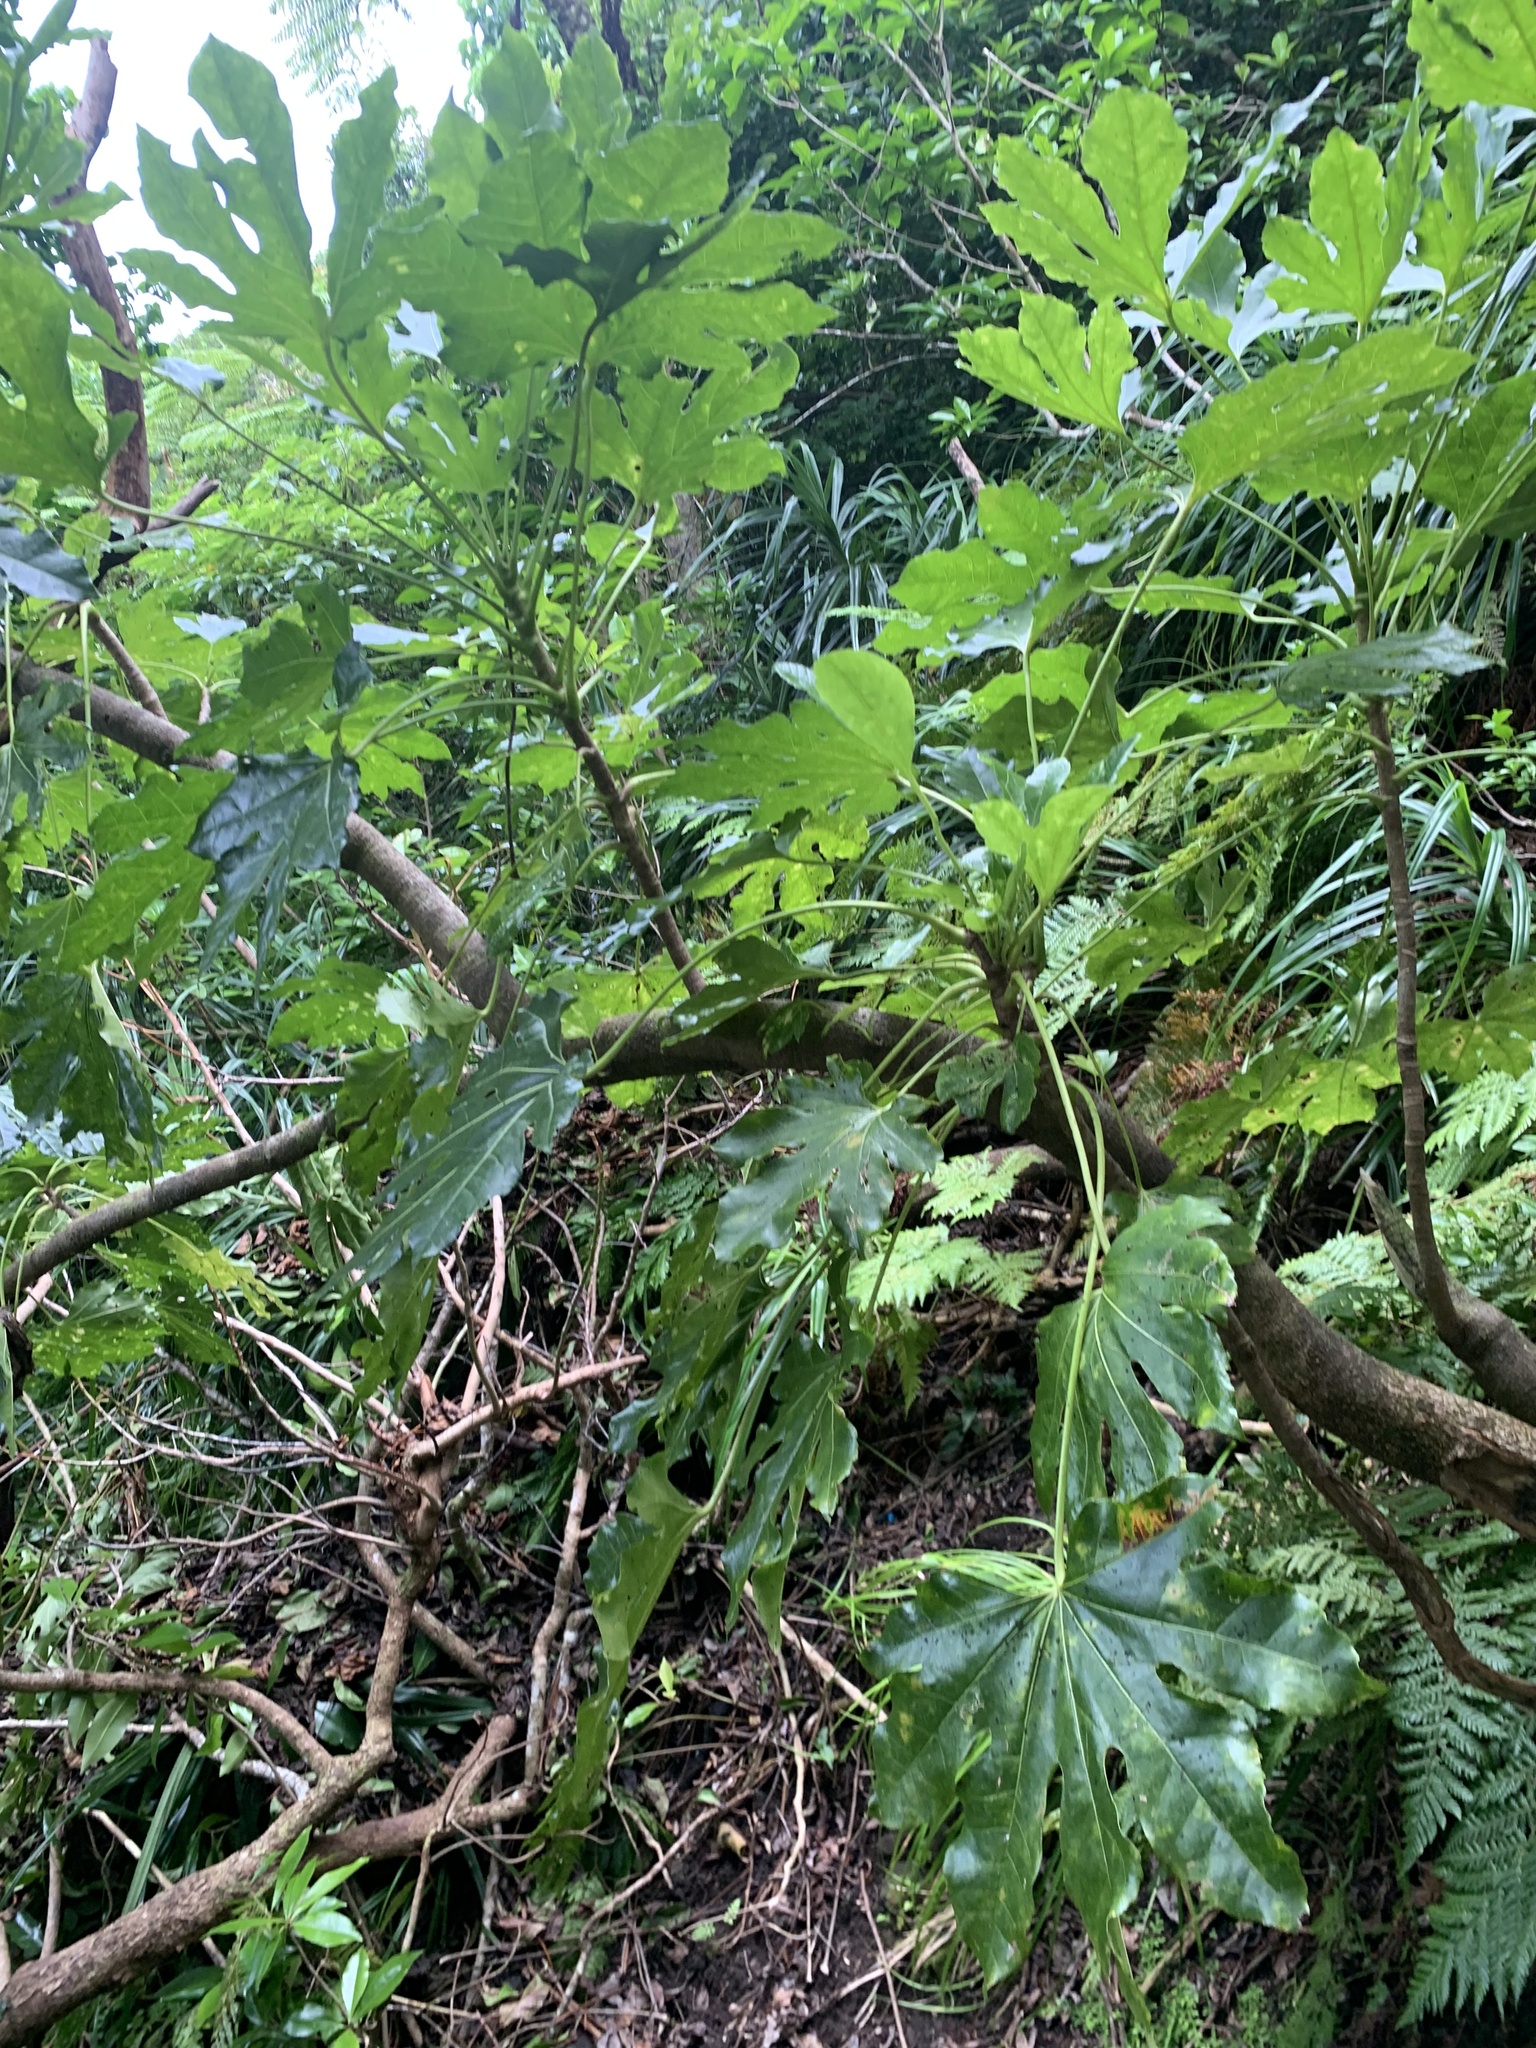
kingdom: Plantae
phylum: Tracheophyta
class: Magnoliopsida
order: Apiales
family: Araliaceae
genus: Fatsia
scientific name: Fatsia oligocarpella
